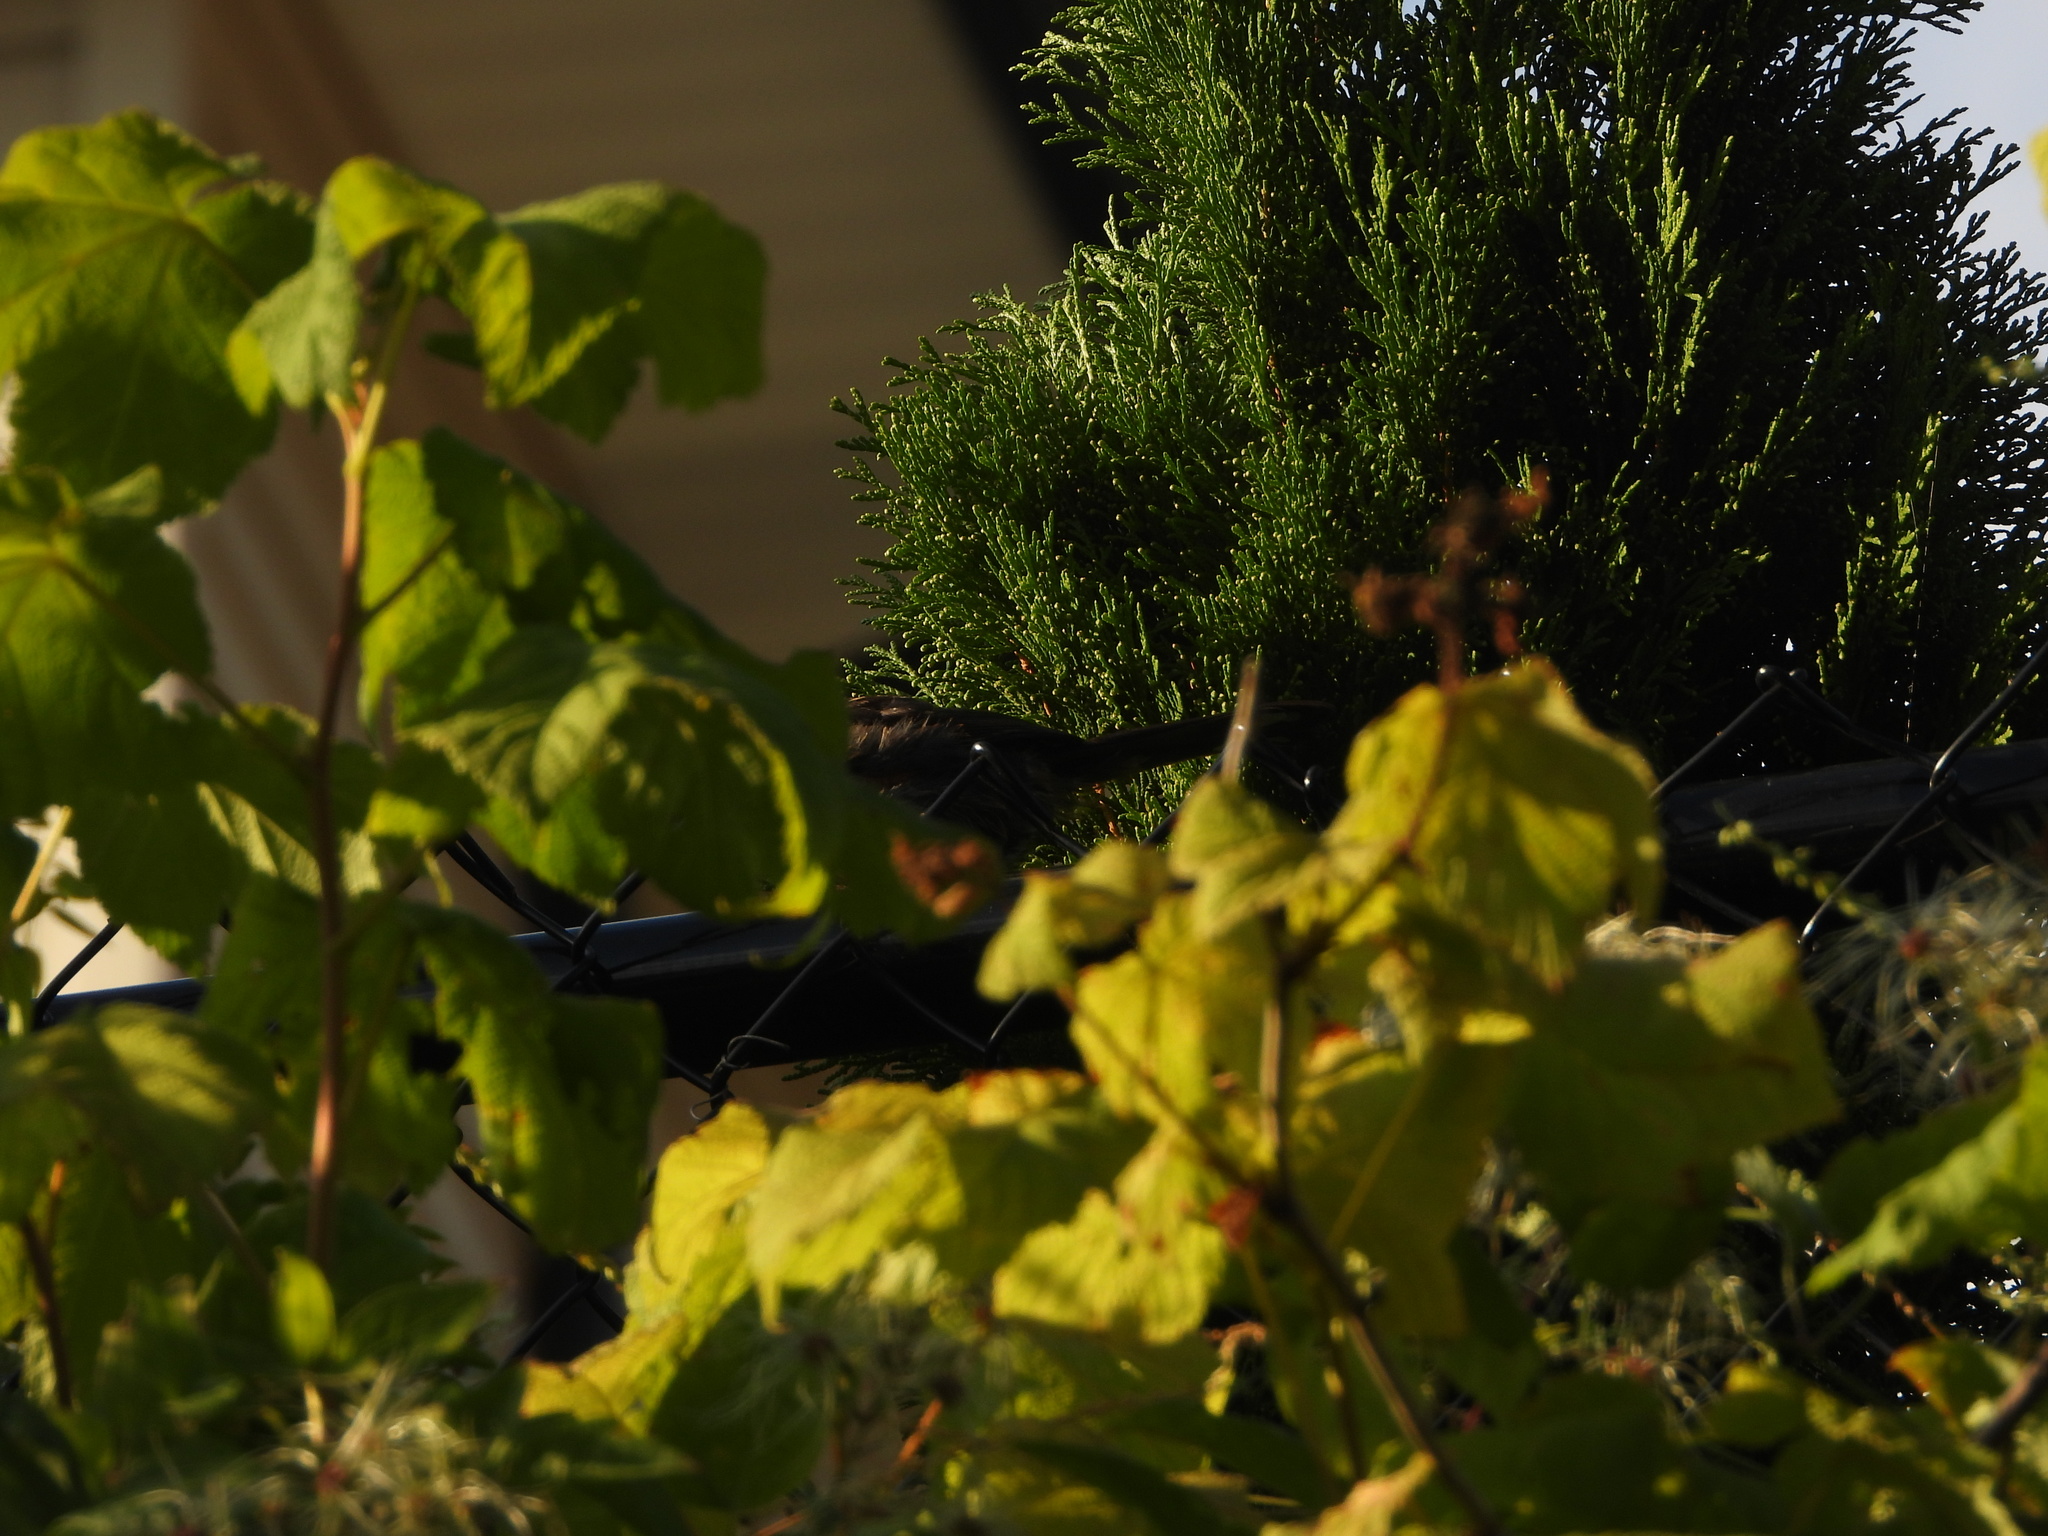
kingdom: Animalia
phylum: Chordata
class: Aves
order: Passeriformes
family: Passerellidae
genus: Pipilo
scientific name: Pipilo maculatus
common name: Spotted towhee
